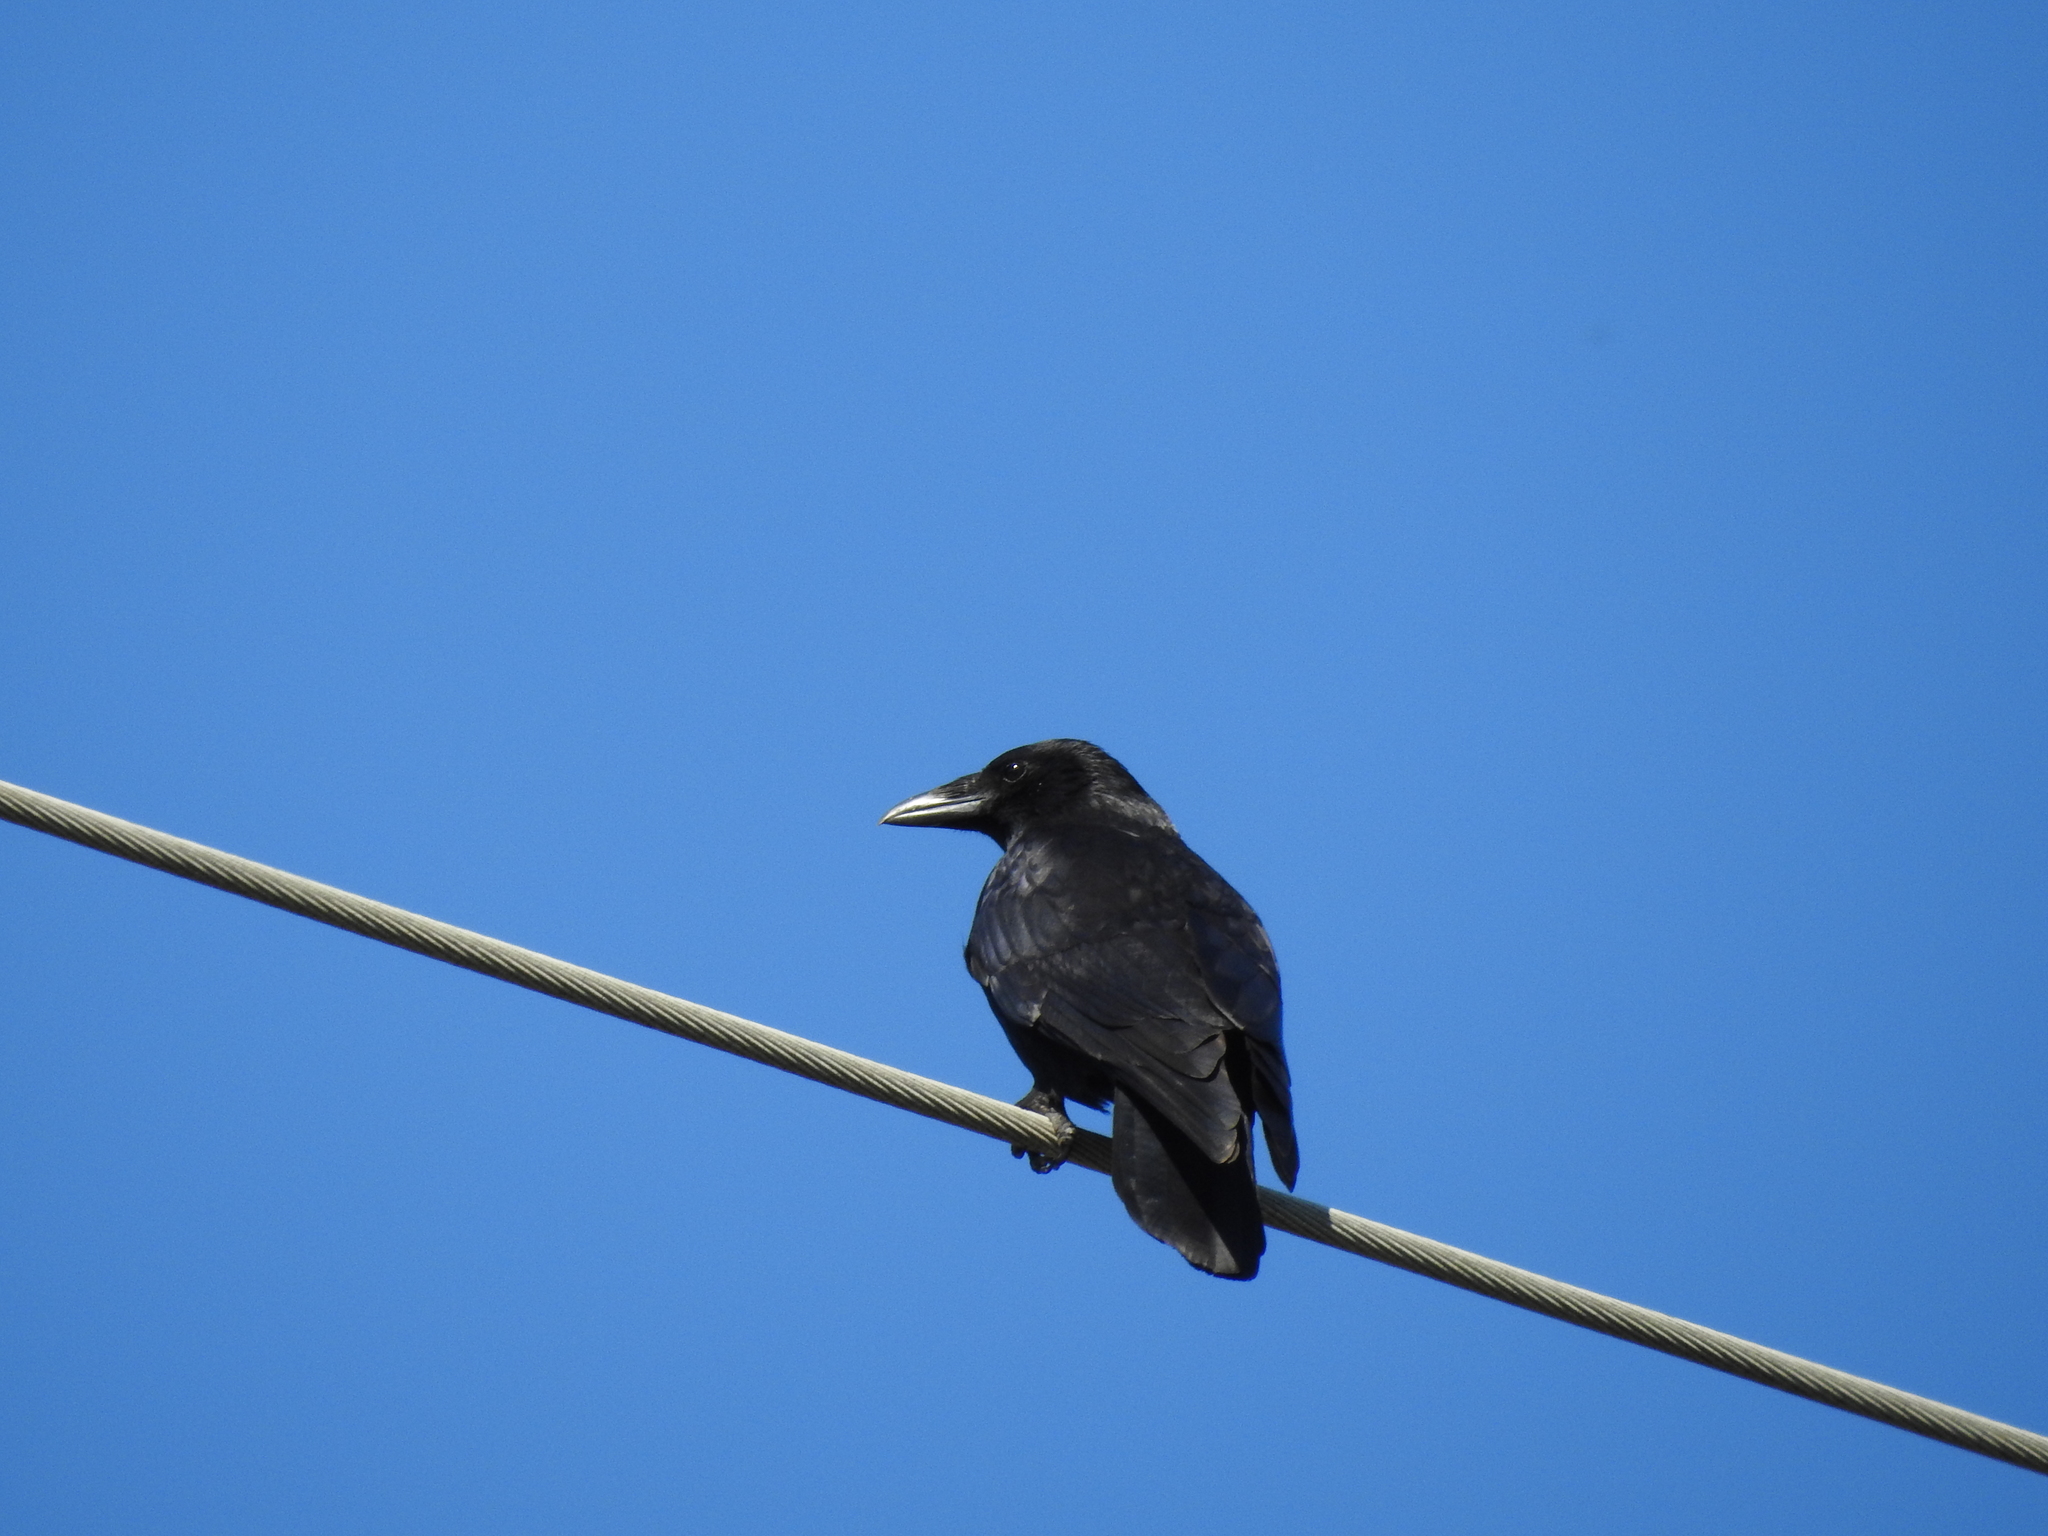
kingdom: Animalia
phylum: Chordata
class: Aves
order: Passeriformes
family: Corvidae
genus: Corvus
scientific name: Corvus corone
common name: Carrion crow
